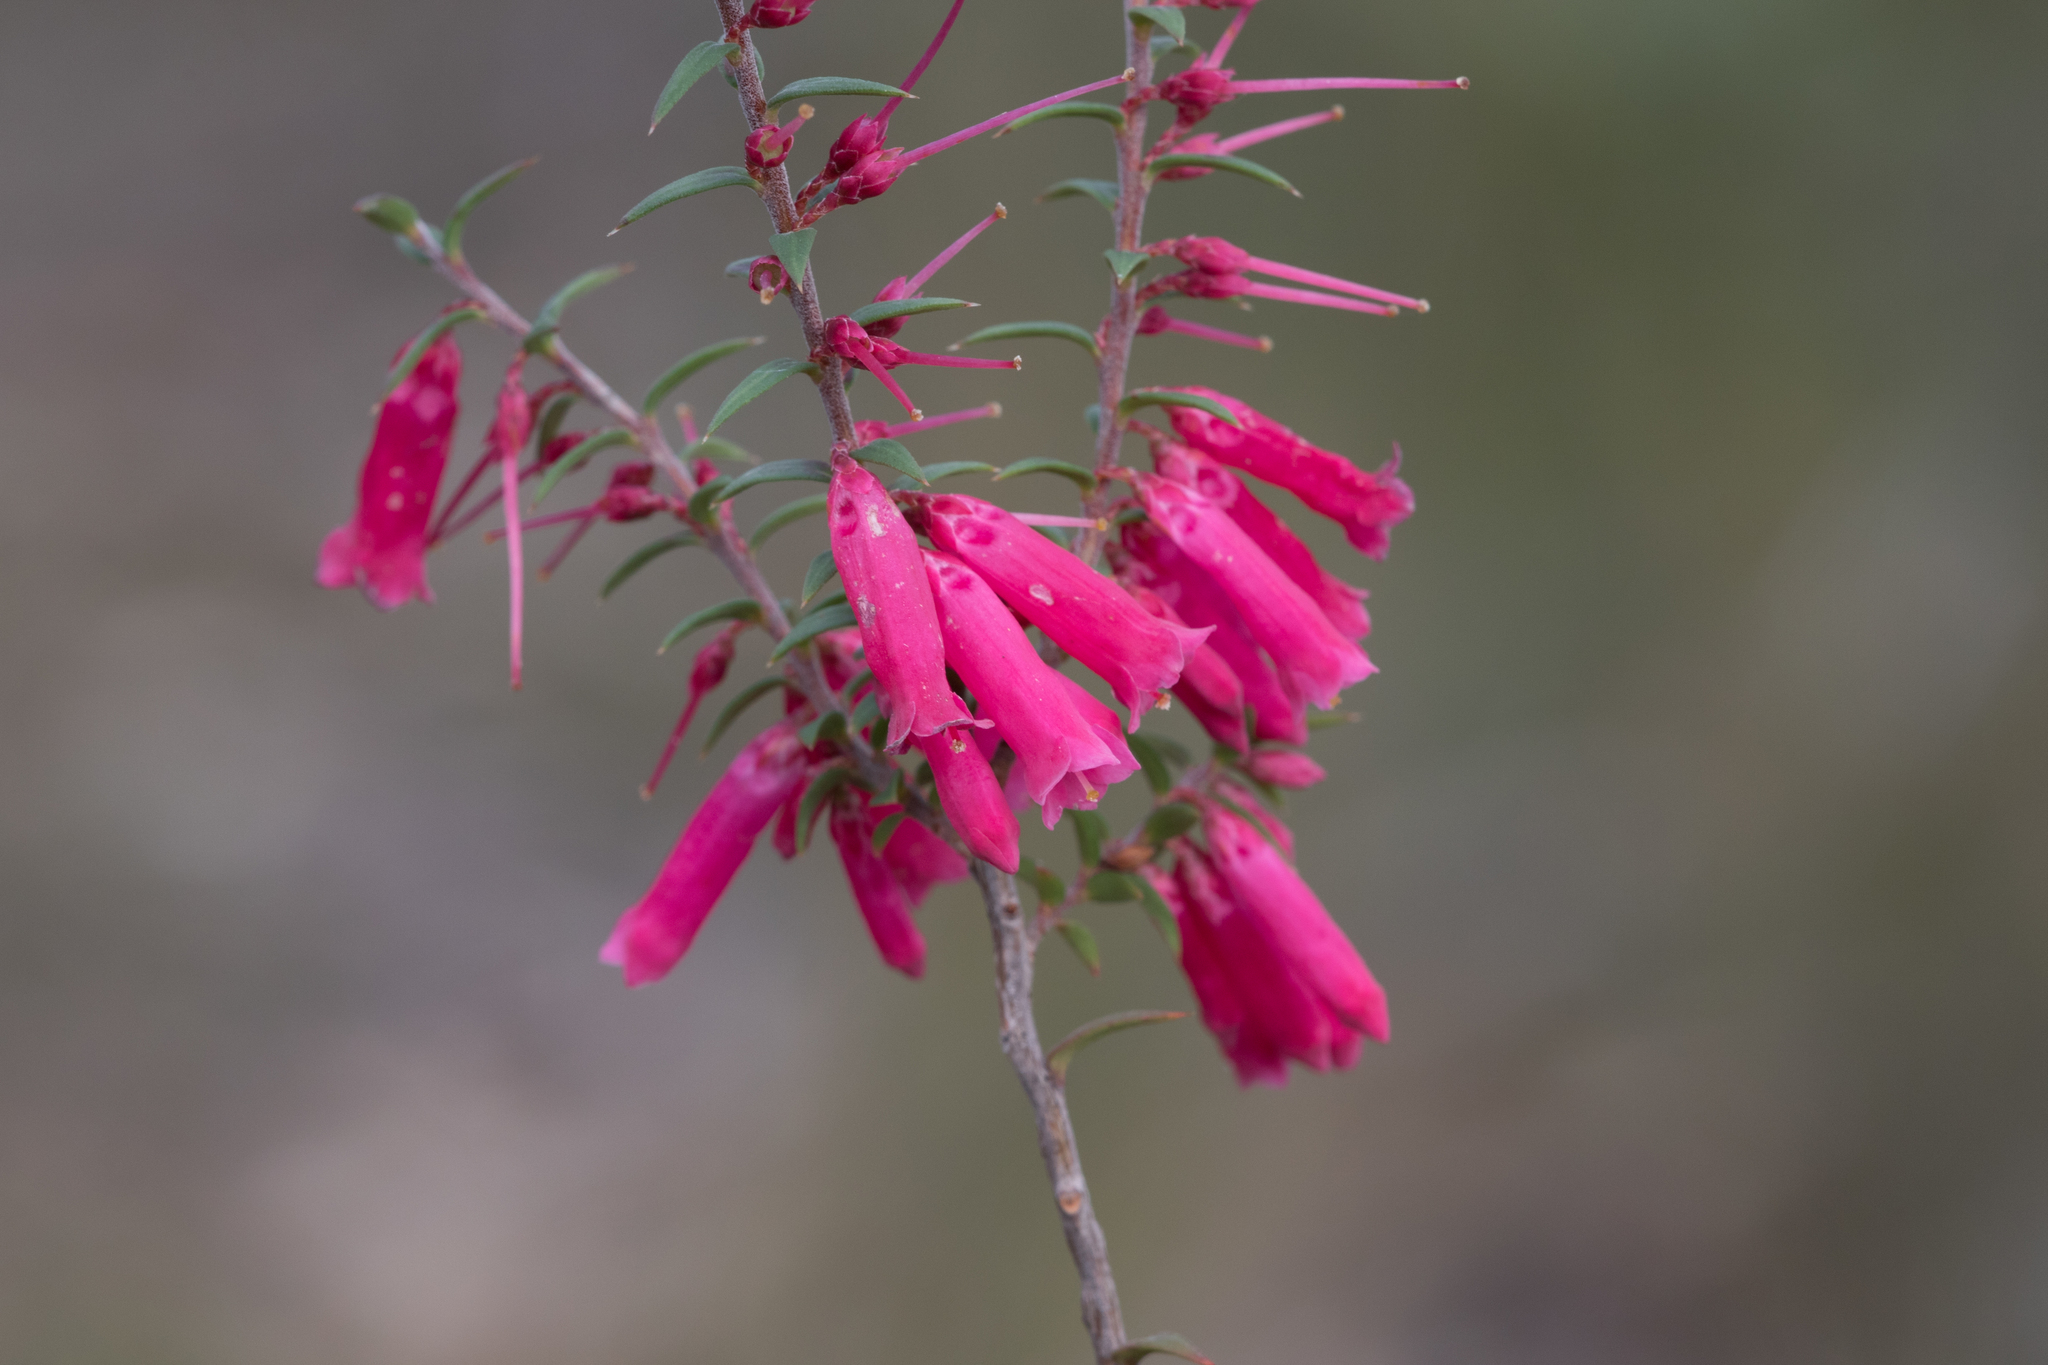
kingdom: Plantae
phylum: Tracheophyta
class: Magnoliopsida
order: Ericales
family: Ericaceae
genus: Epacris
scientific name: Epacris impressa
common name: Common-heath
